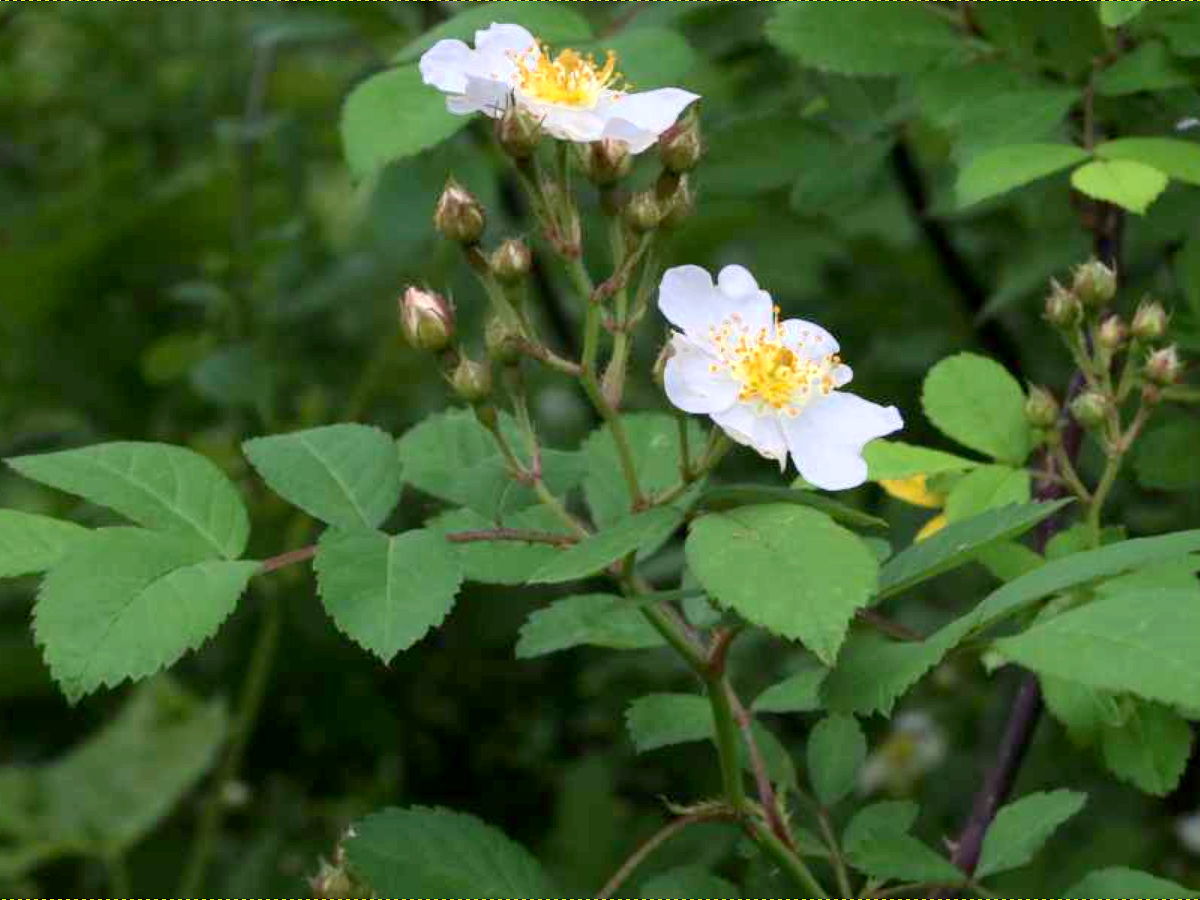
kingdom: Plantae
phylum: Tracheophyta
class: Magnoliopsida
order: Rosales
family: Rosaceae
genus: Rosa
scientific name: Rosa multiflora
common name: Multiflora rose
